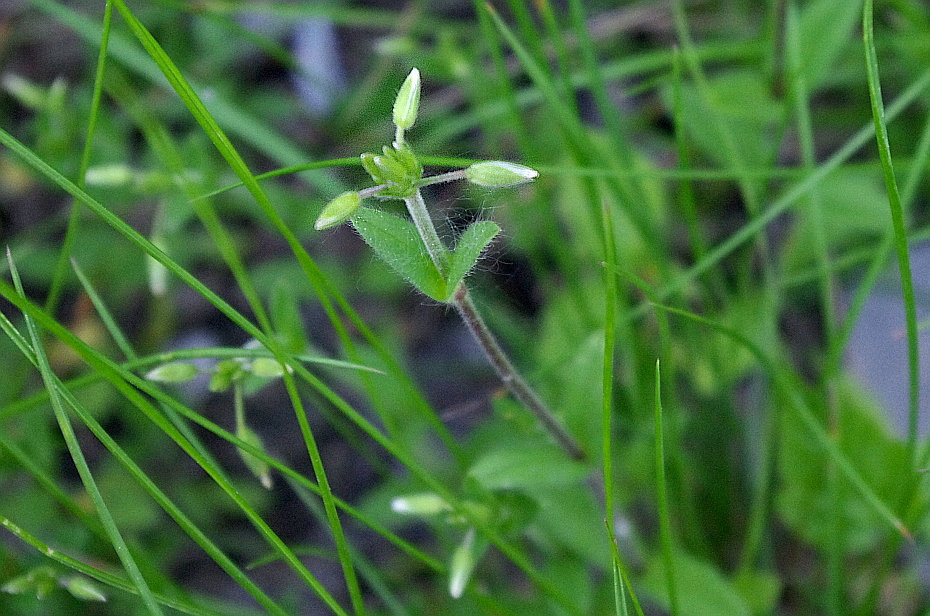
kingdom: Plantae
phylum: Tracheophyta
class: Magnoliopsida
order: Caryophyllales
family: Caryophyllaceae
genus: Cerastium
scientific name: Cerastium holosteoides
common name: Big chickweed
